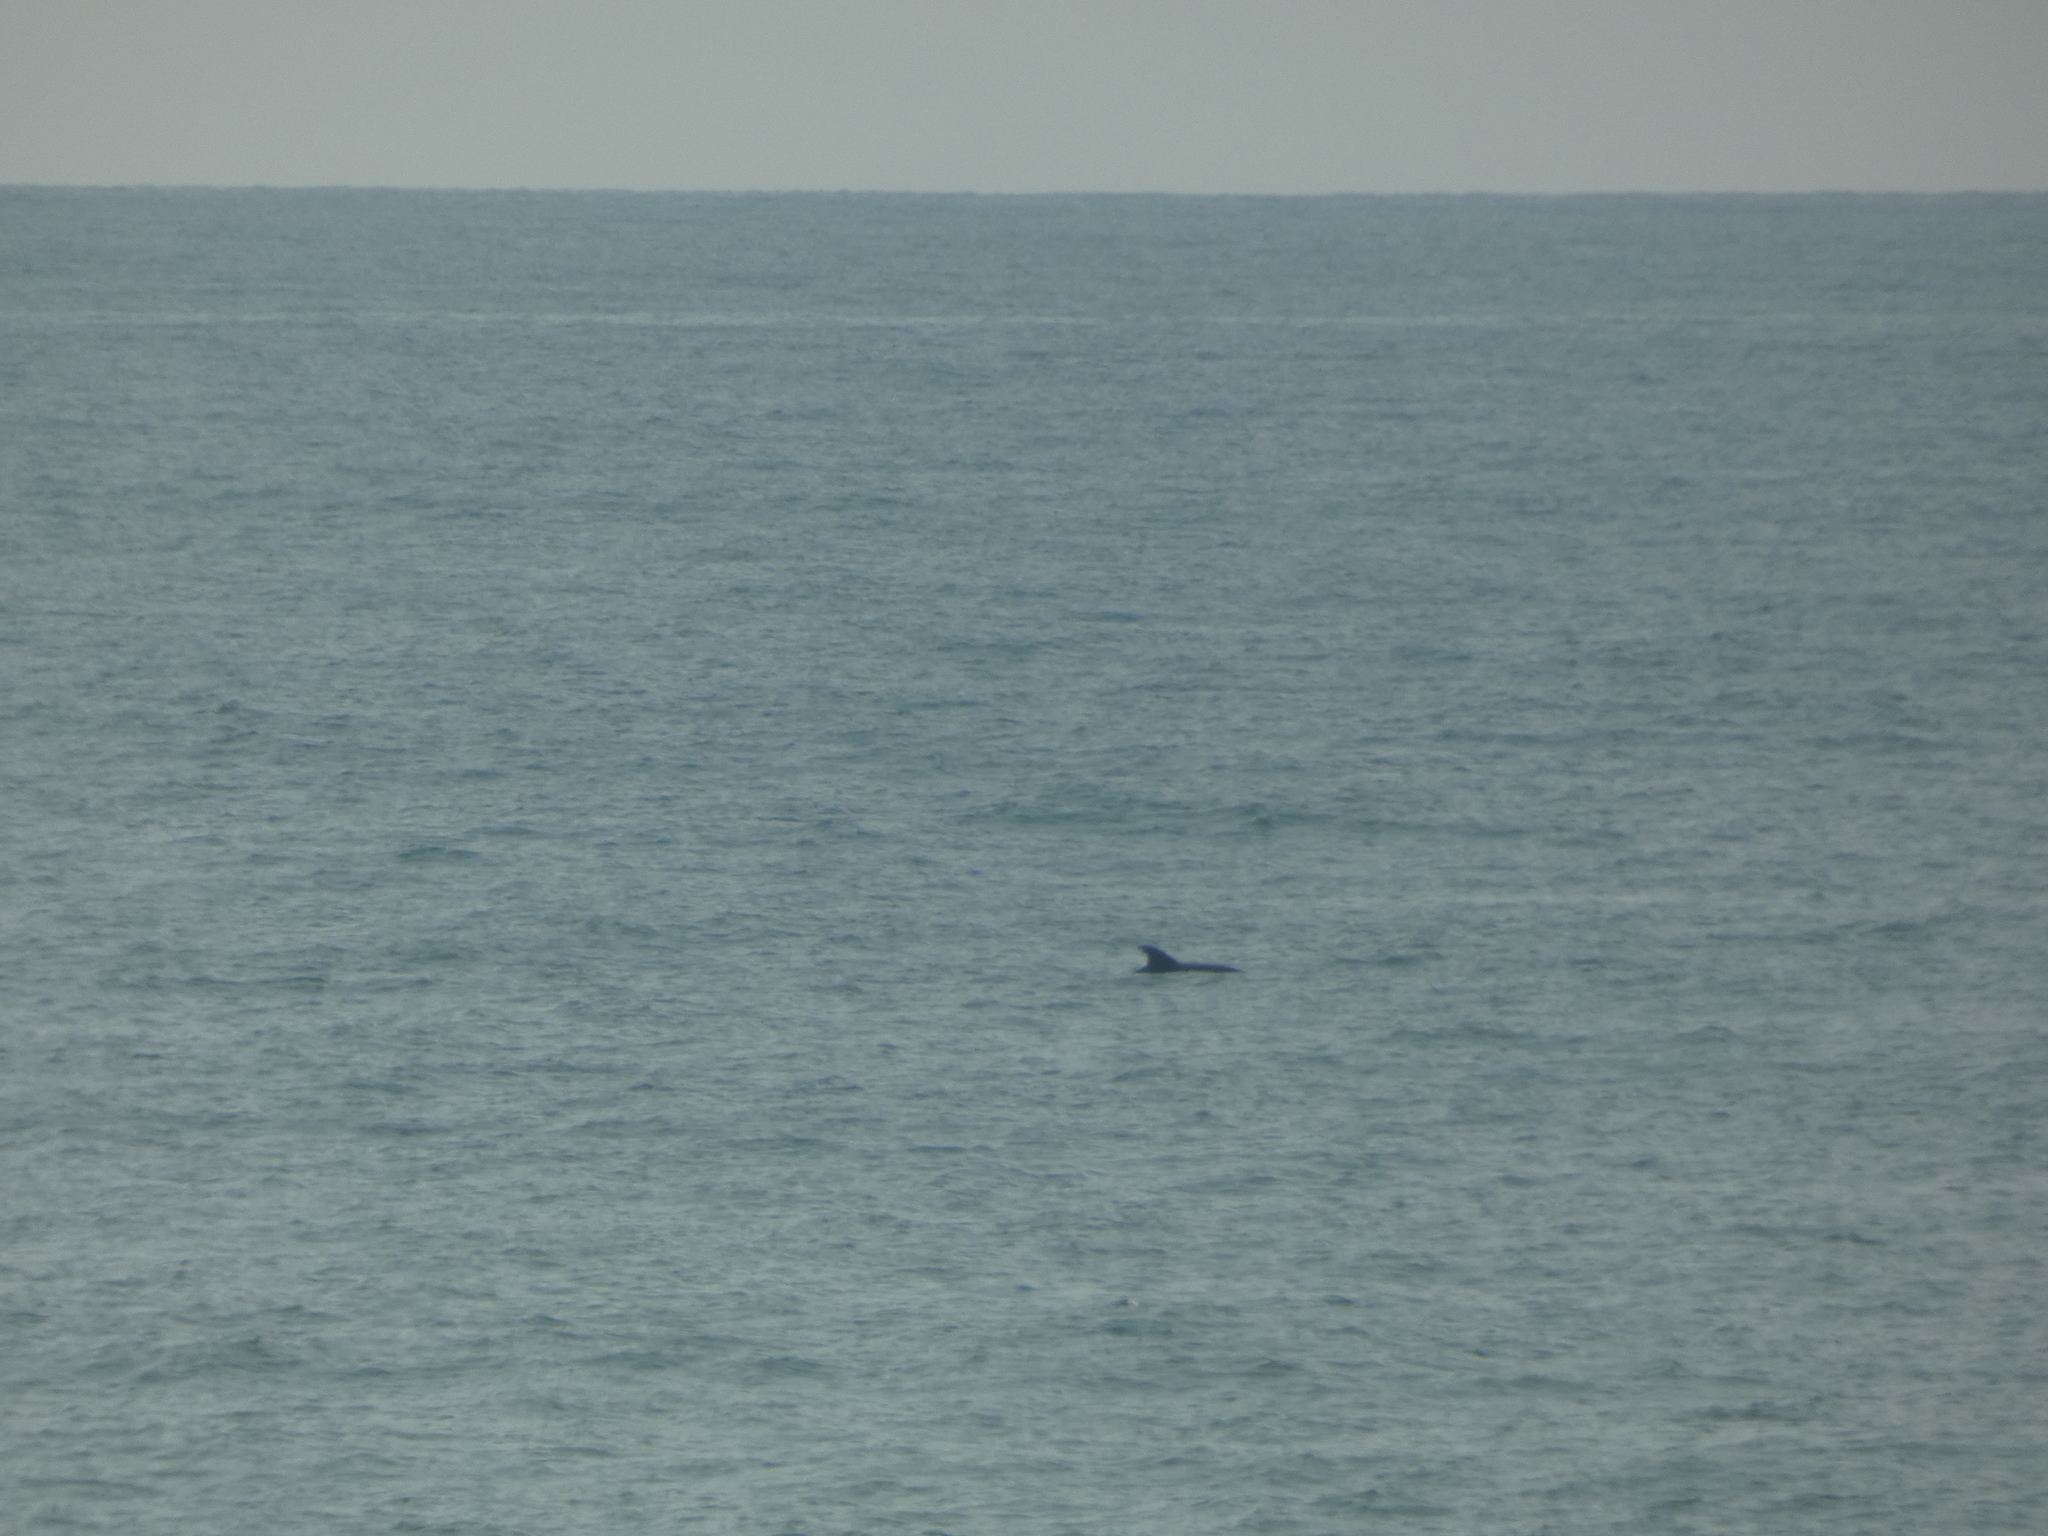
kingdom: Animalia
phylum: Chordata
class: Mammalia
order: Cetacea
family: Delphinidae
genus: Tursiops
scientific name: Tursiops truncatus
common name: Bottlenose dolphin
